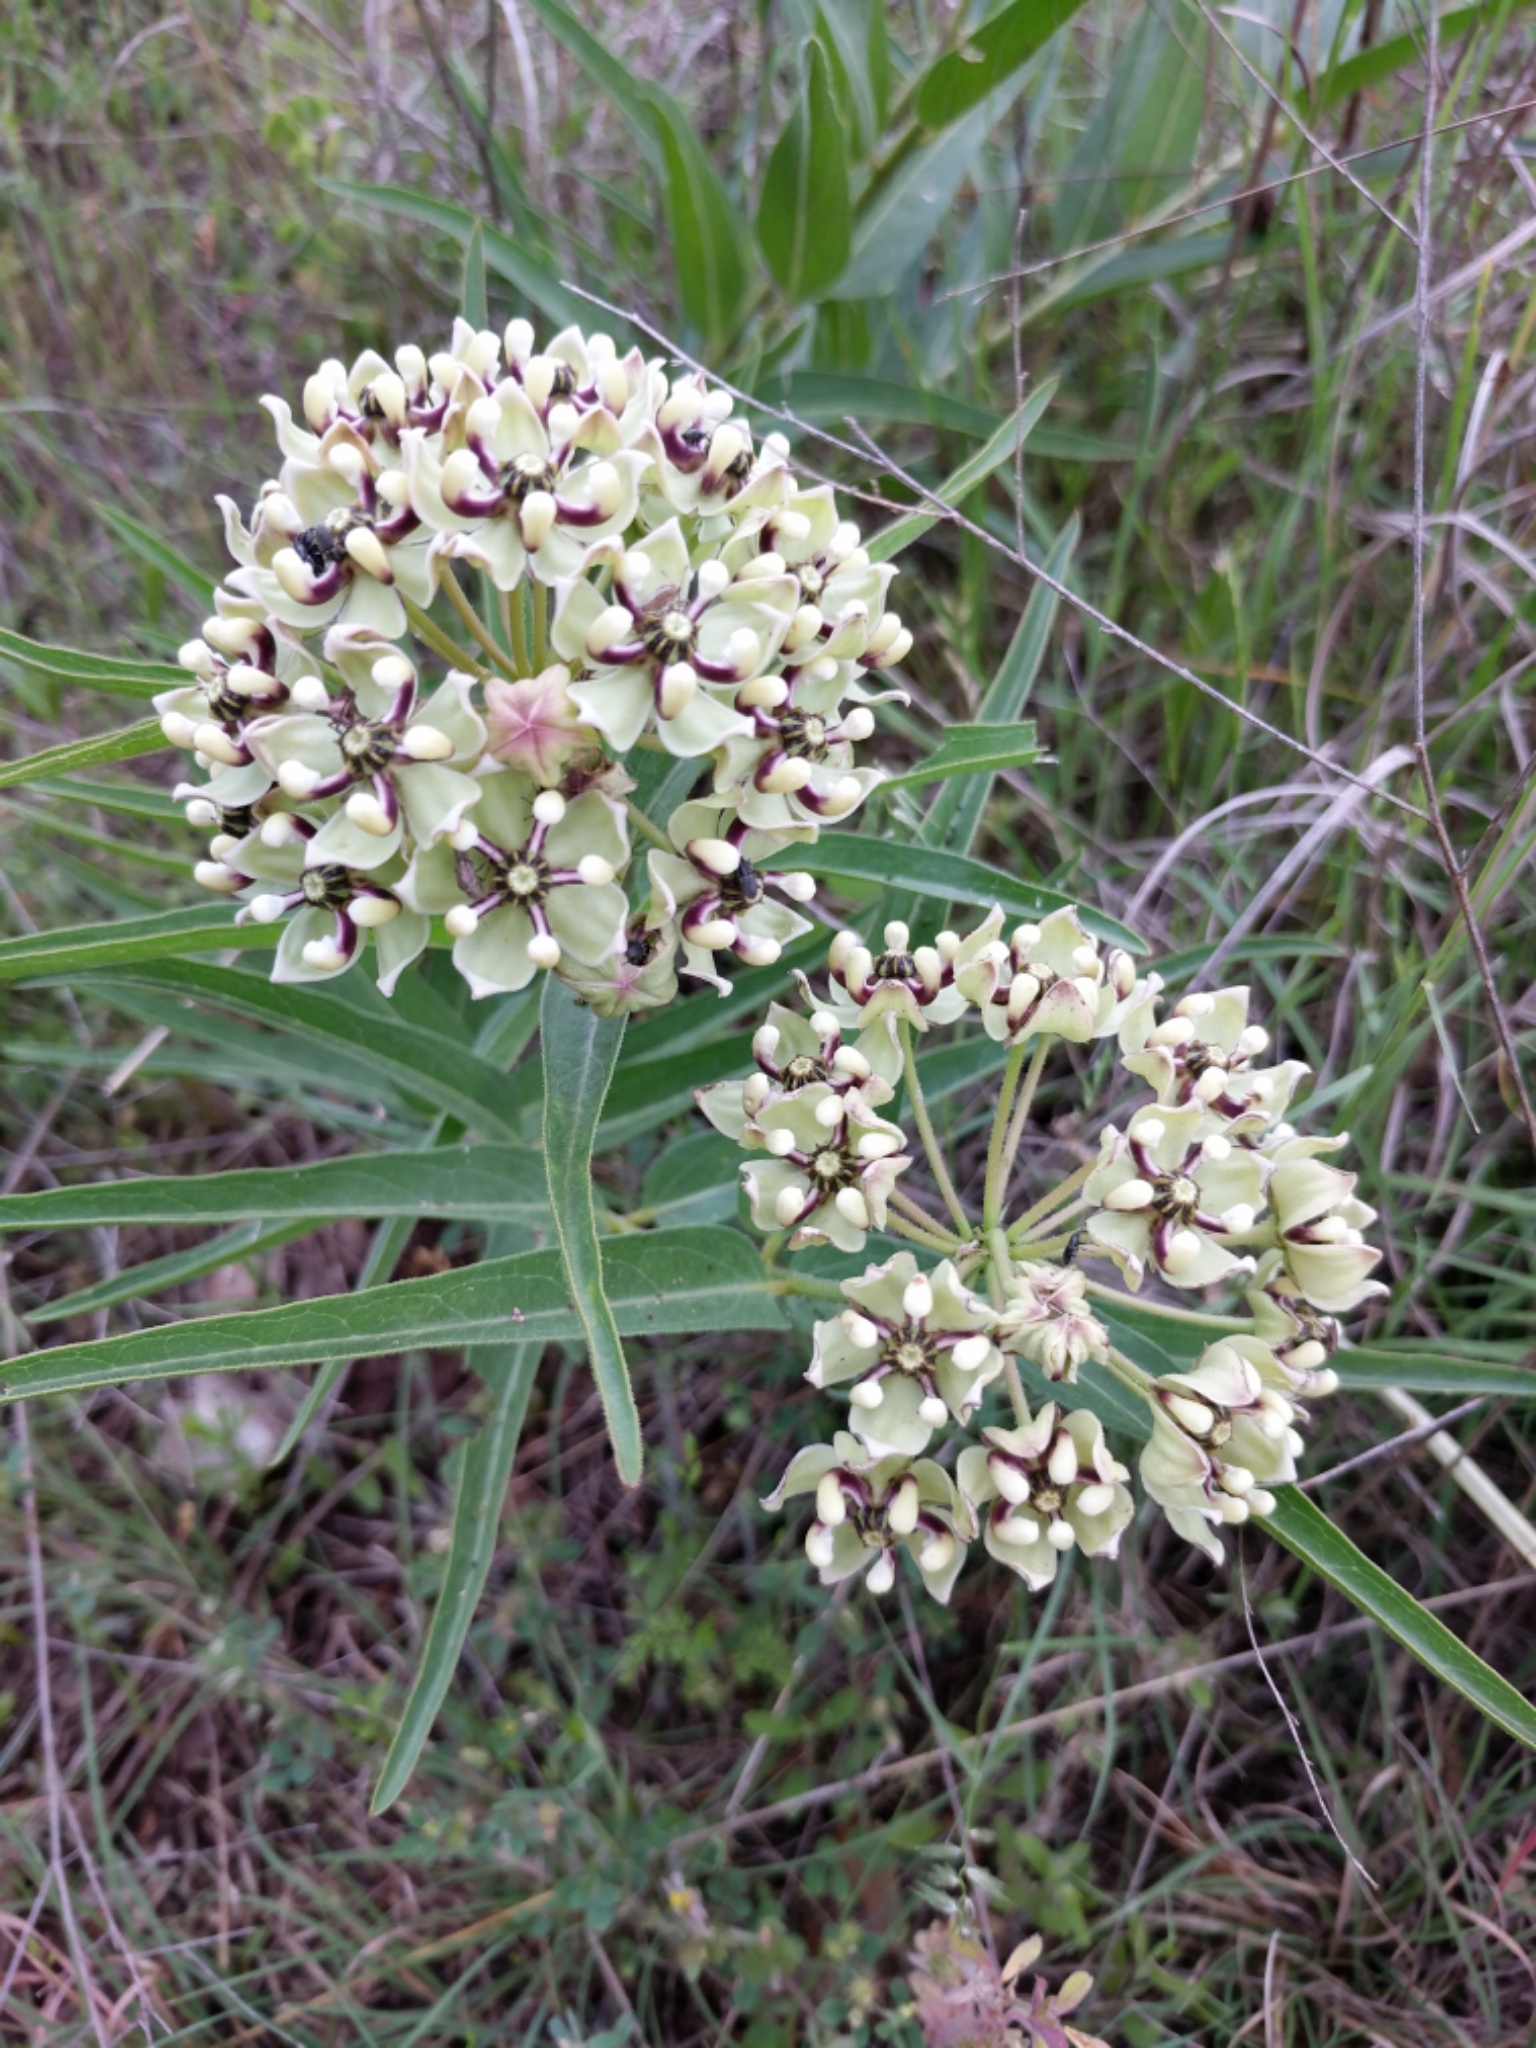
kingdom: Plantae
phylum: Tracheophyta
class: Magnoliopsida
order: Gentianales
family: Apocynaceae
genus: Asclepias
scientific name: Asclepias asperula
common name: Antelope horns
